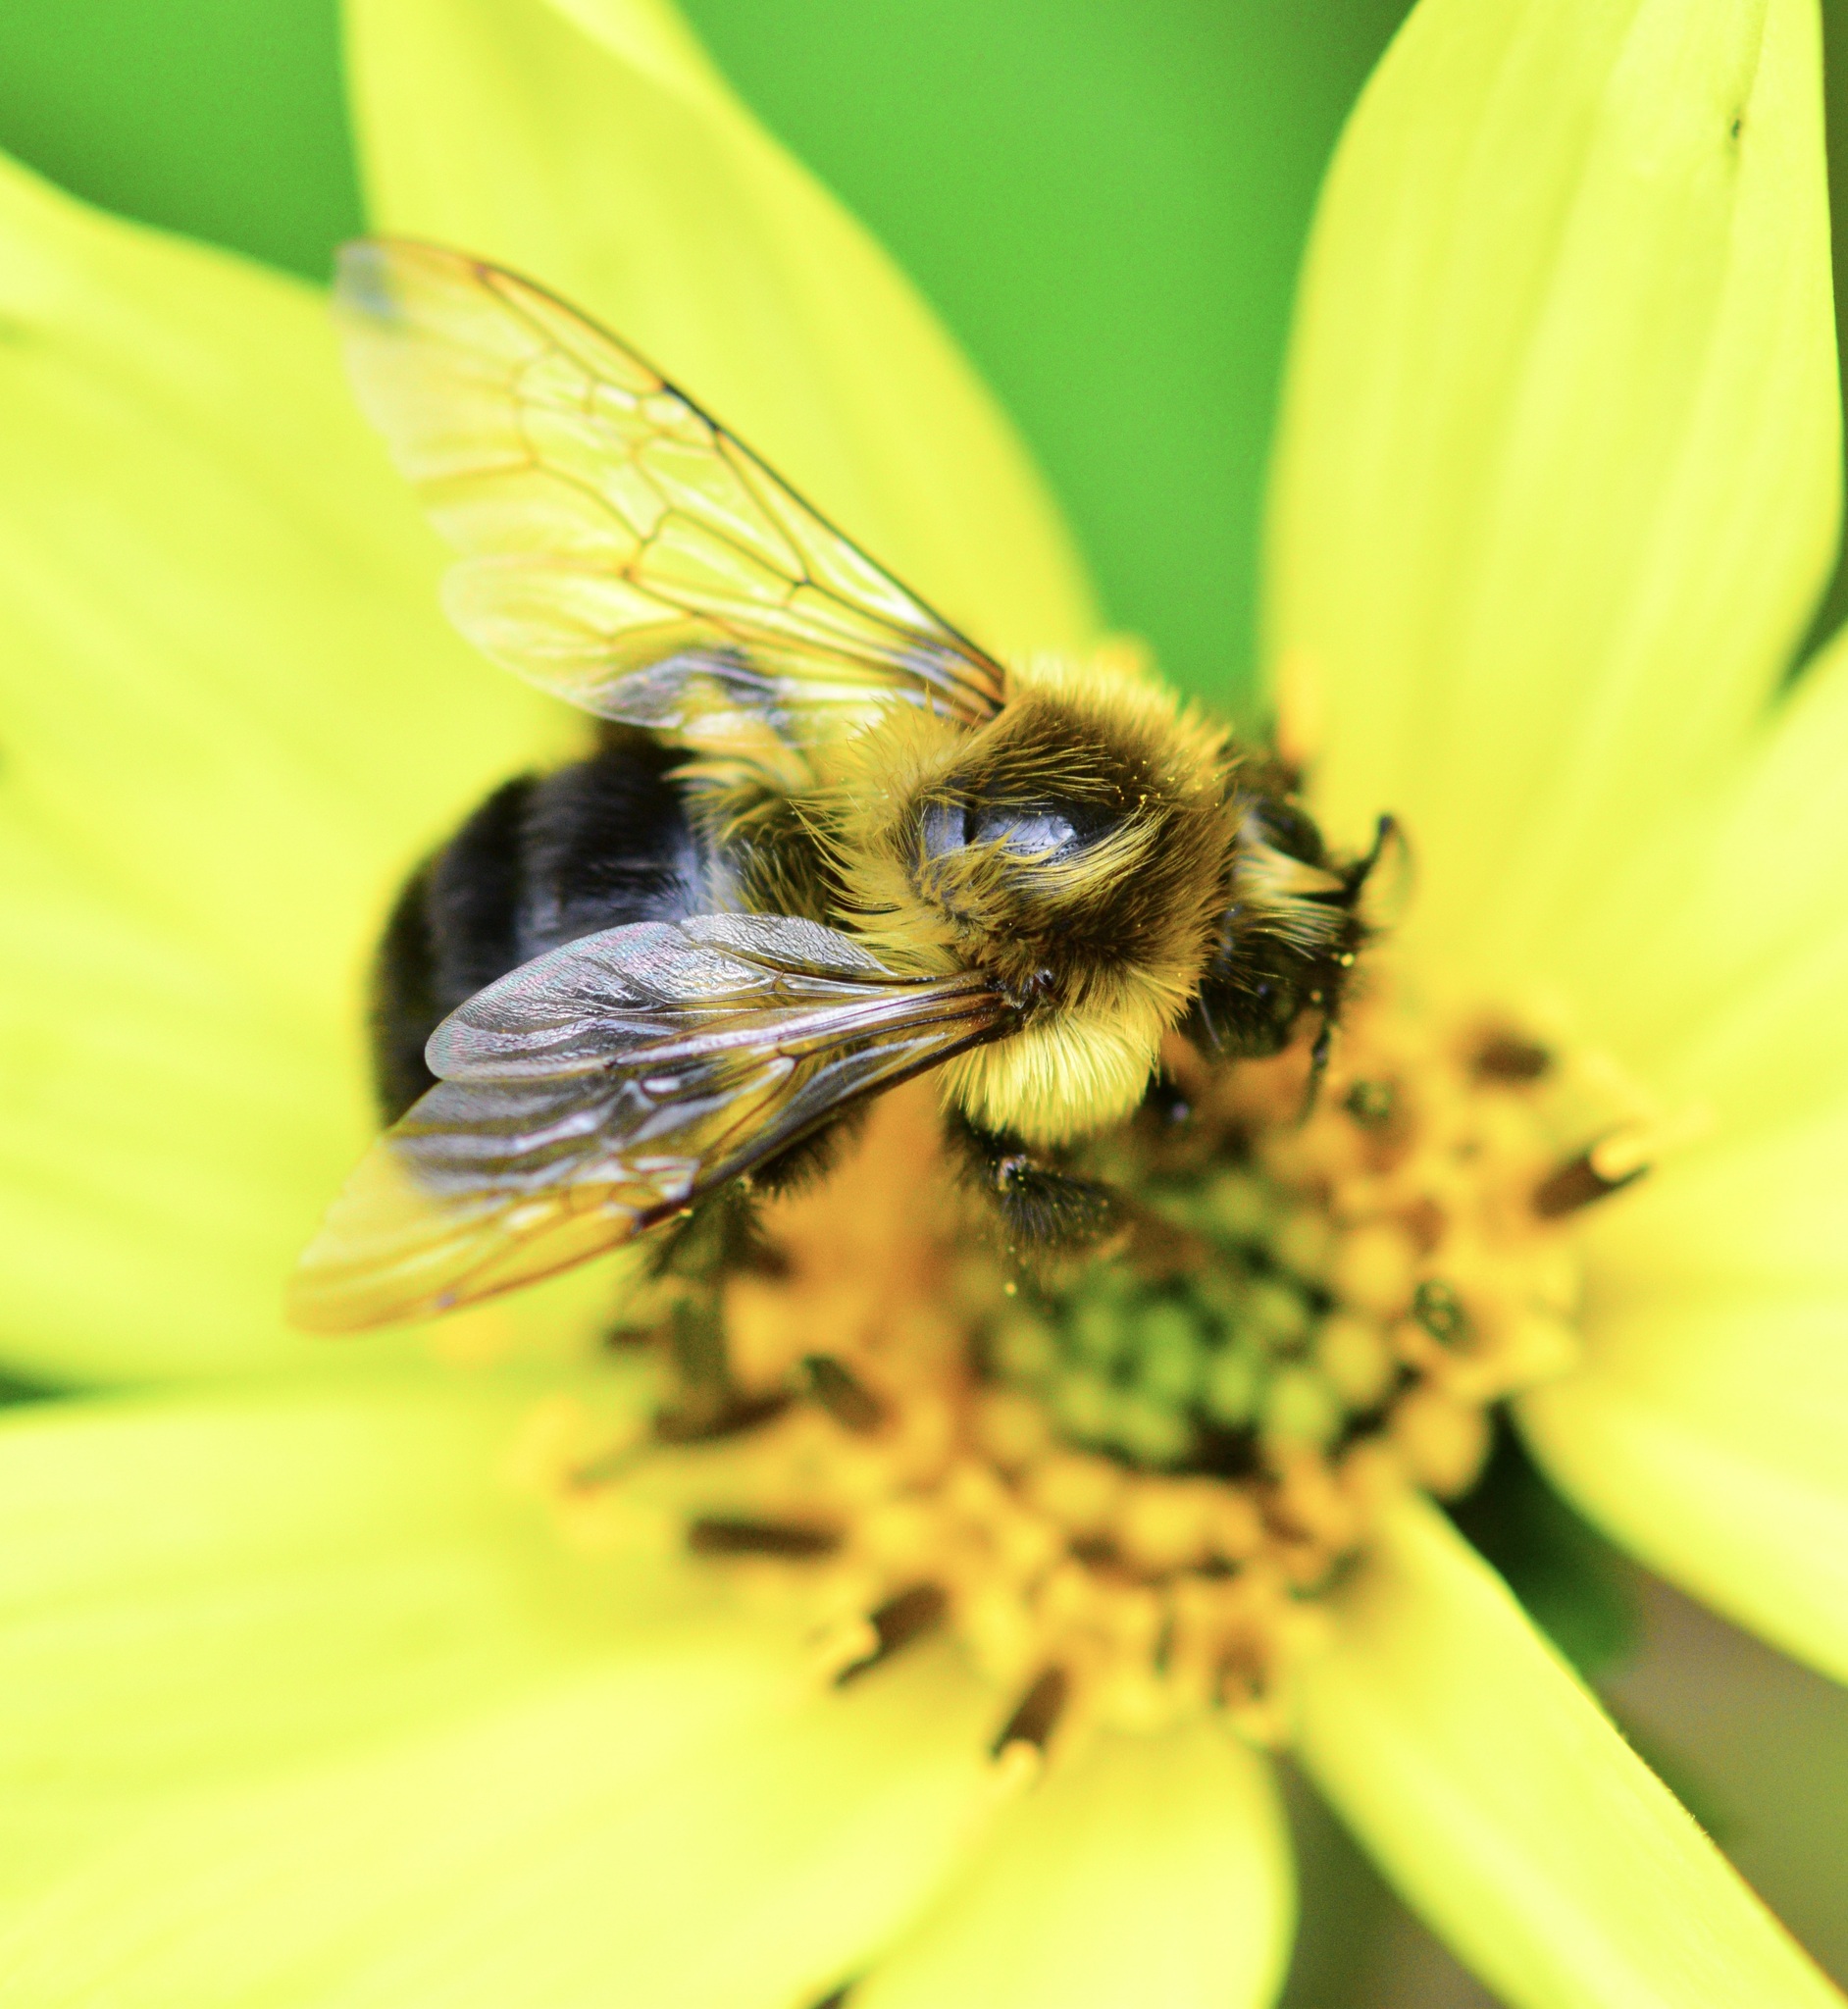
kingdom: Animalia
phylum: Arthropoda
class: Insecta
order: Hymenoptera
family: Apidae
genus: Bombus
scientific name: Bombus impatiens
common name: Common eastern bumble bee
